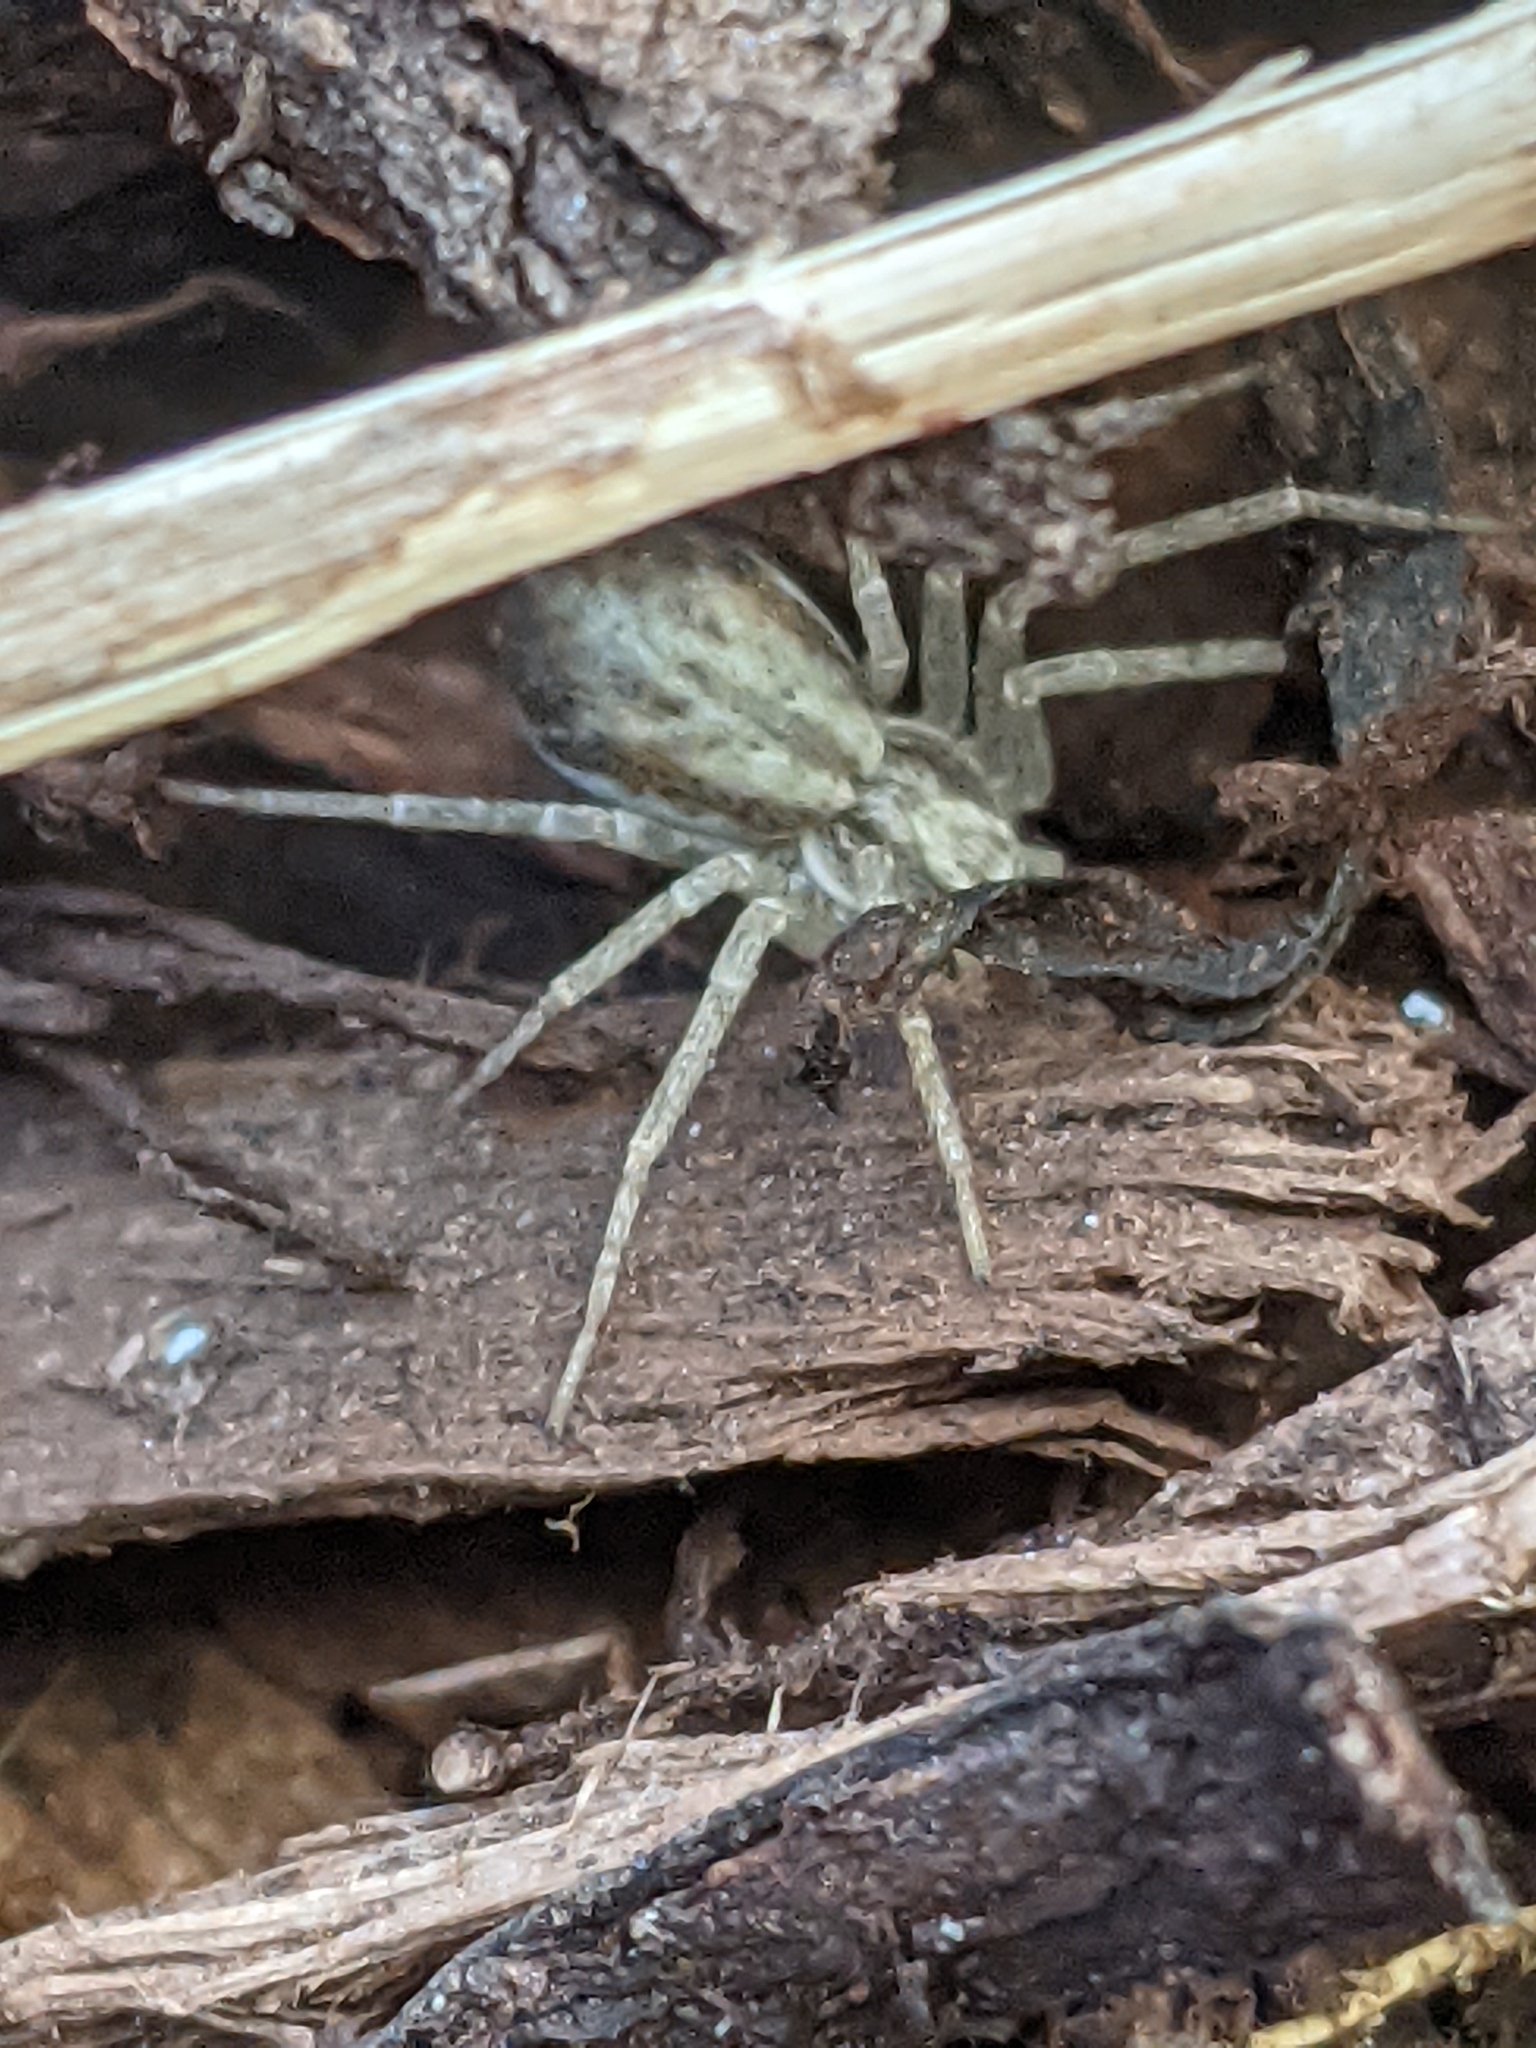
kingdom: Animalia
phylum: Arthropoda
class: Arachnida
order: Araneae
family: Philodromidae
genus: Philodromus
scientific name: Philodromus dispar
